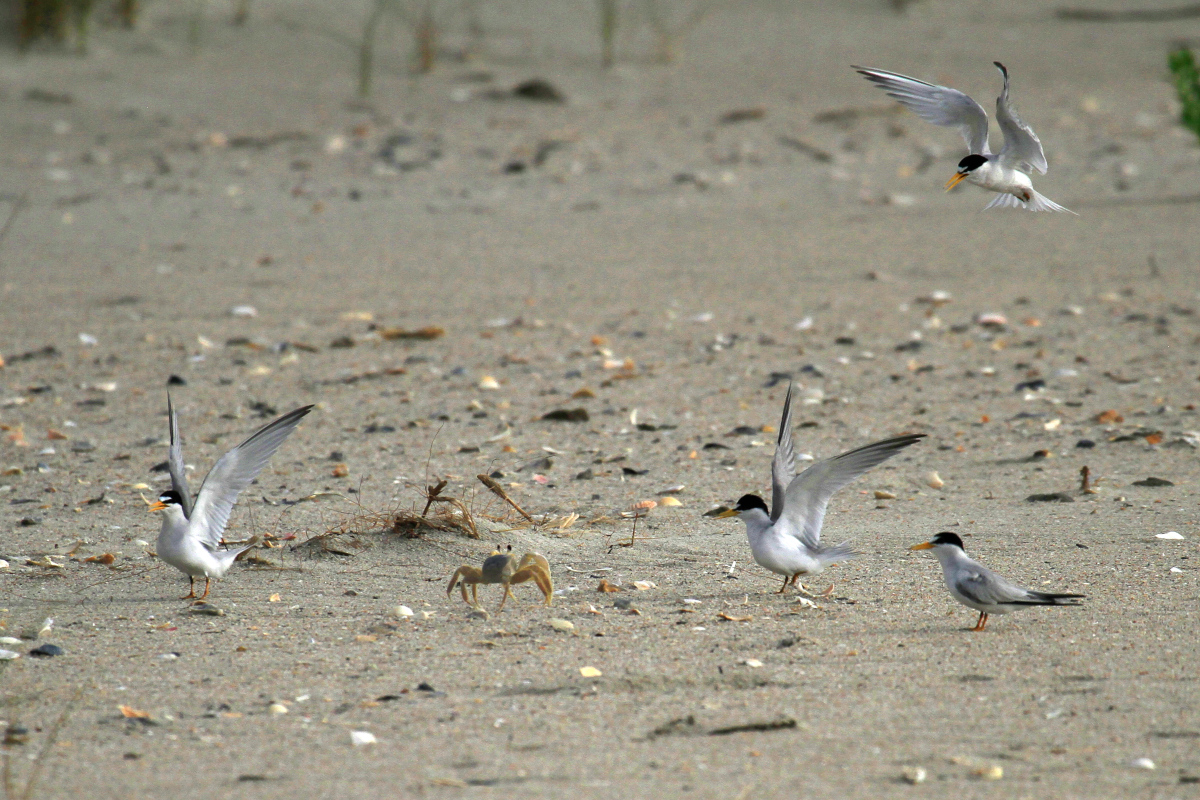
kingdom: Animalia
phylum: Chordata
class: Aves
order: Charadriiformes
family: Laridae
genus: Sternula
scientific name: Sternula antillarum
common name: Least tern
